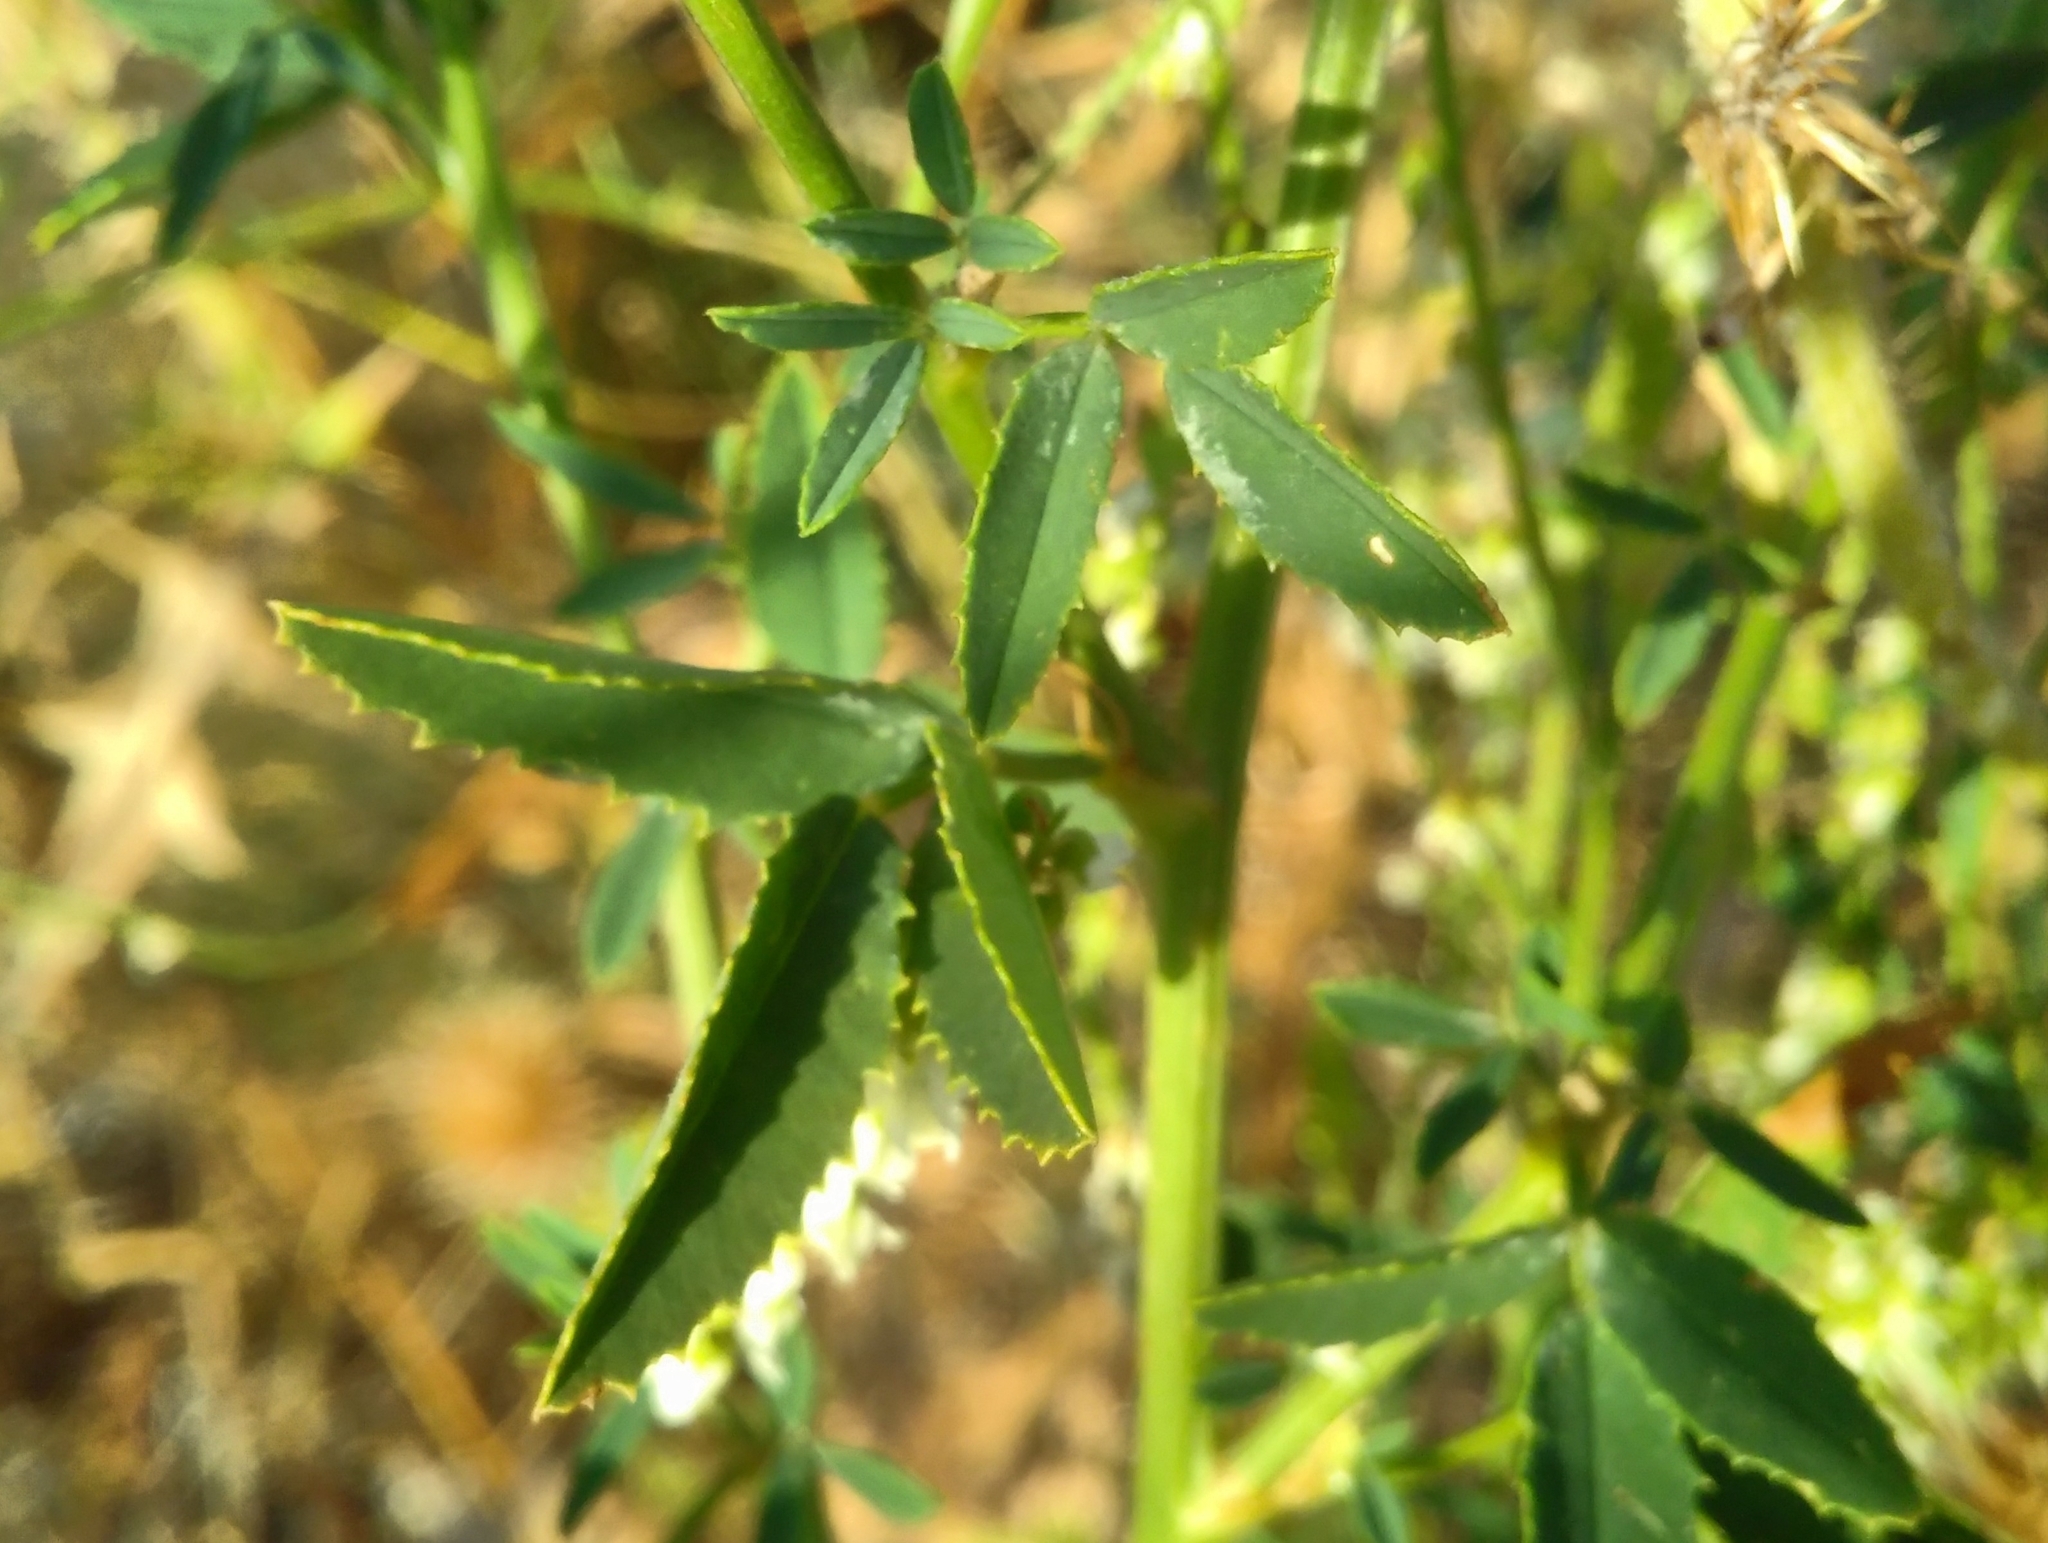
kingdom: Plantae
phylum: Tracheophyta
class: Magnoliopsida
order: Fabales
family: Fabaceae
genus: Melilotus
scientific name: Melilotus albus
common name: White melilot
